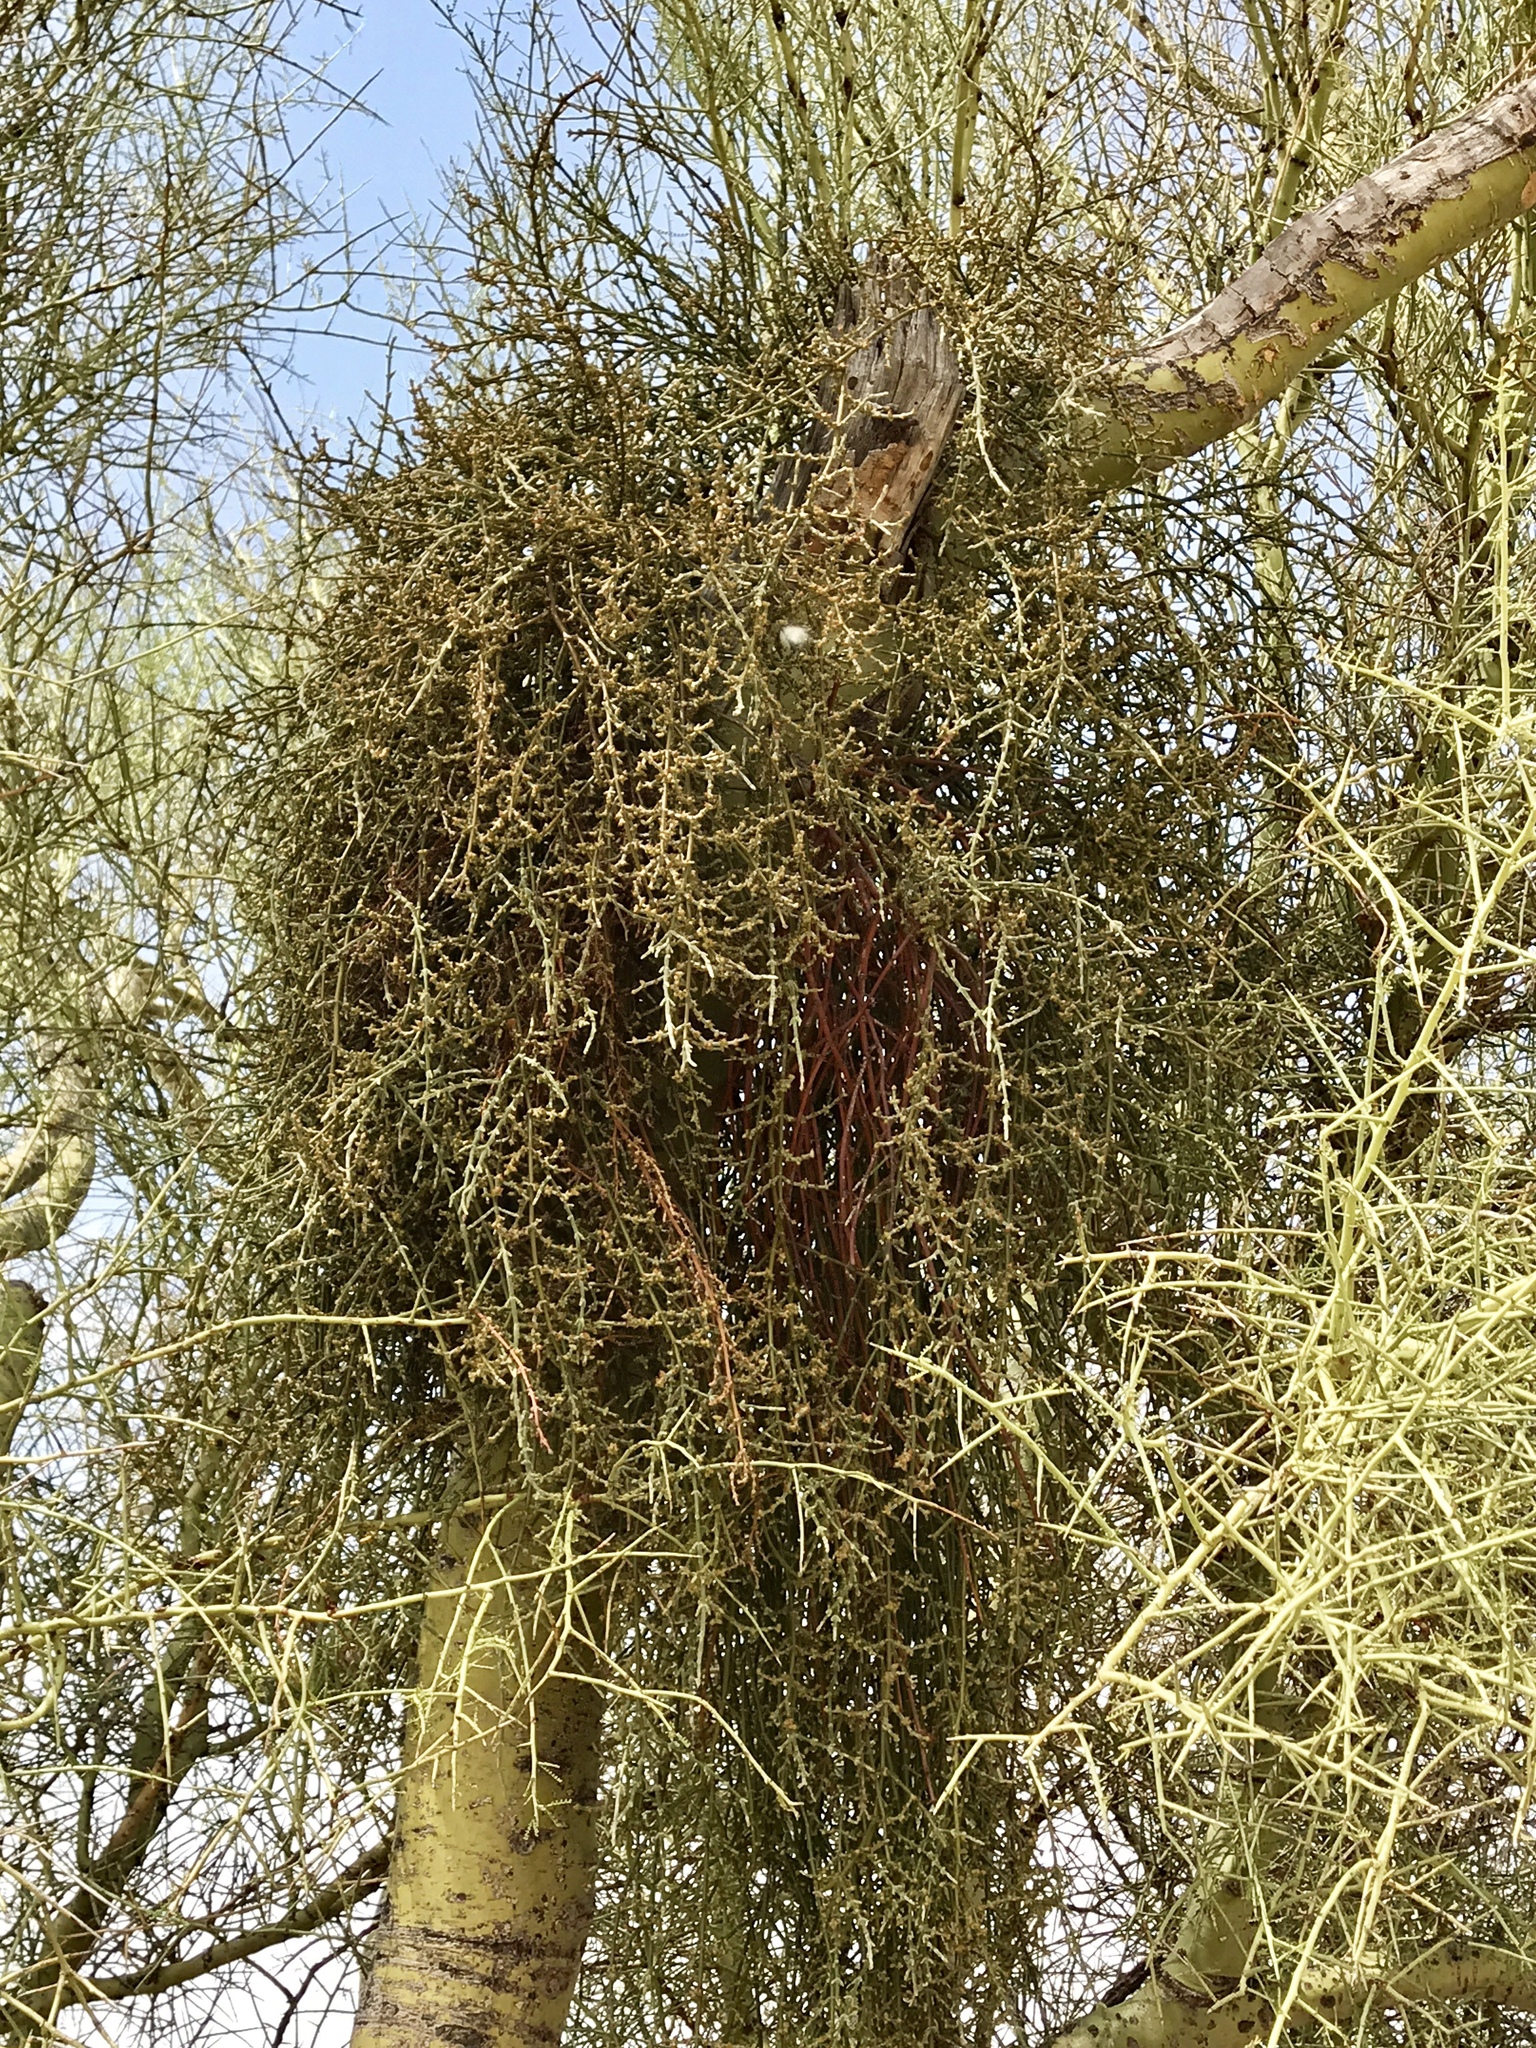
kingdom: Plantae
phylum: Tracheophyta
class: Magnoliopsida
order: Santalales
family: Viscaceae
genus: Phoradendron
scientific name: Phoradendron californicum
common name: Acacia mistletoe
